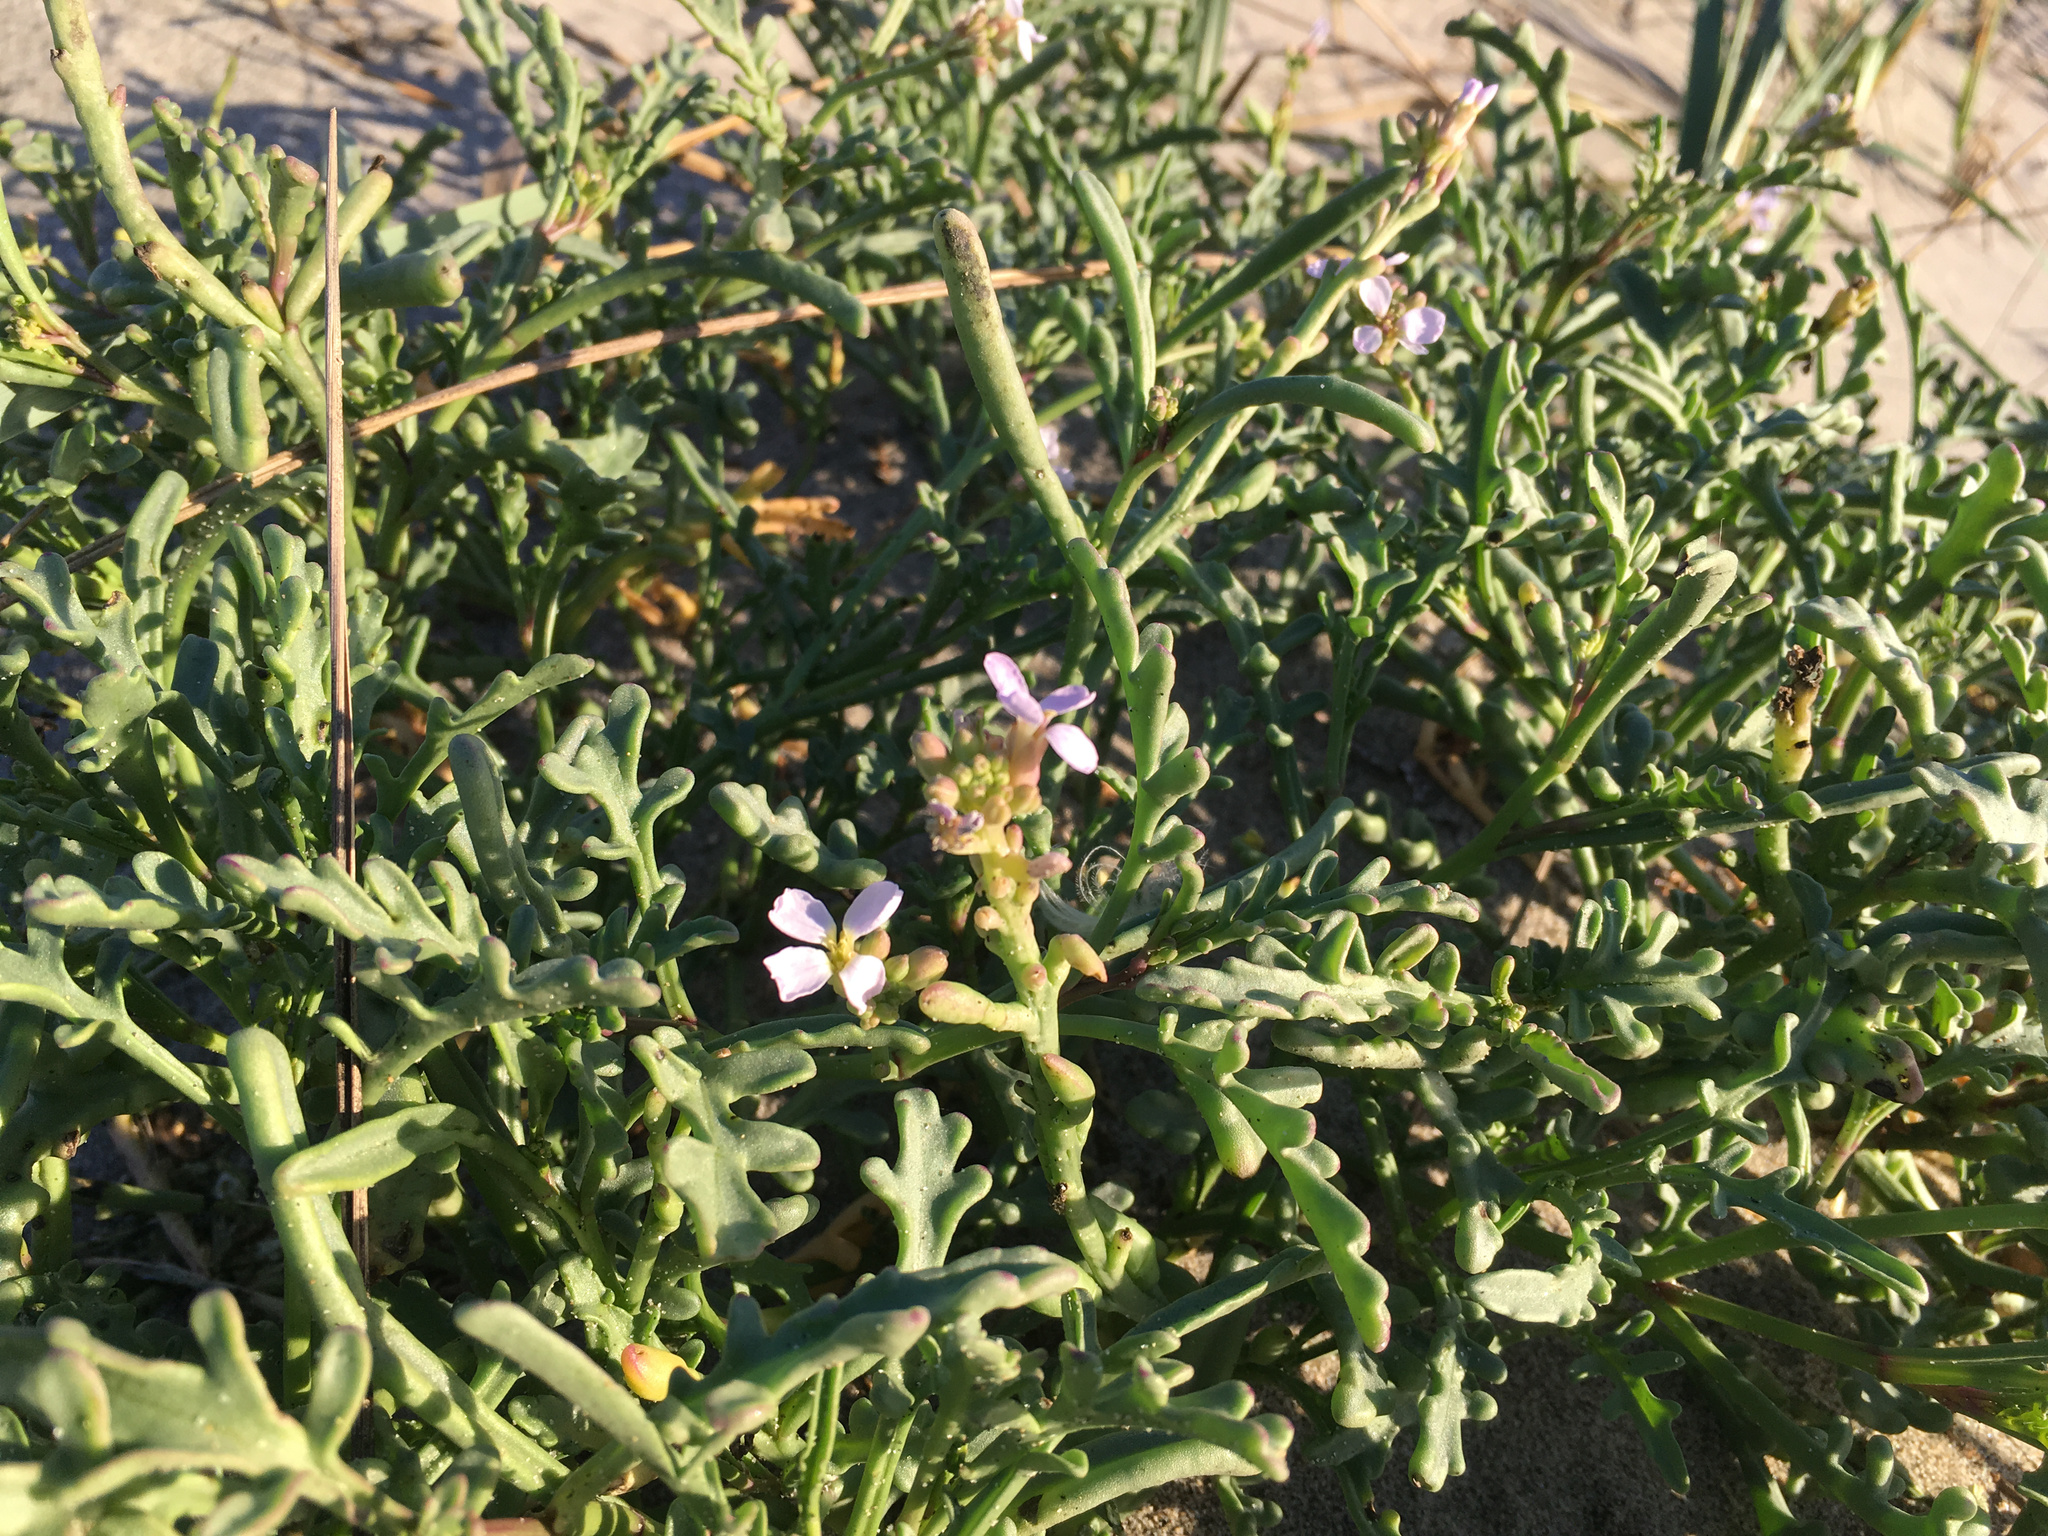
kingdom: Plantae
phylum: Tracheophyta
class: Magnoliopsida
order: Brassicales
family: Brassicaceae
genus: Cakile
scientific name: Cakile maritima
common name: Sea rocket
